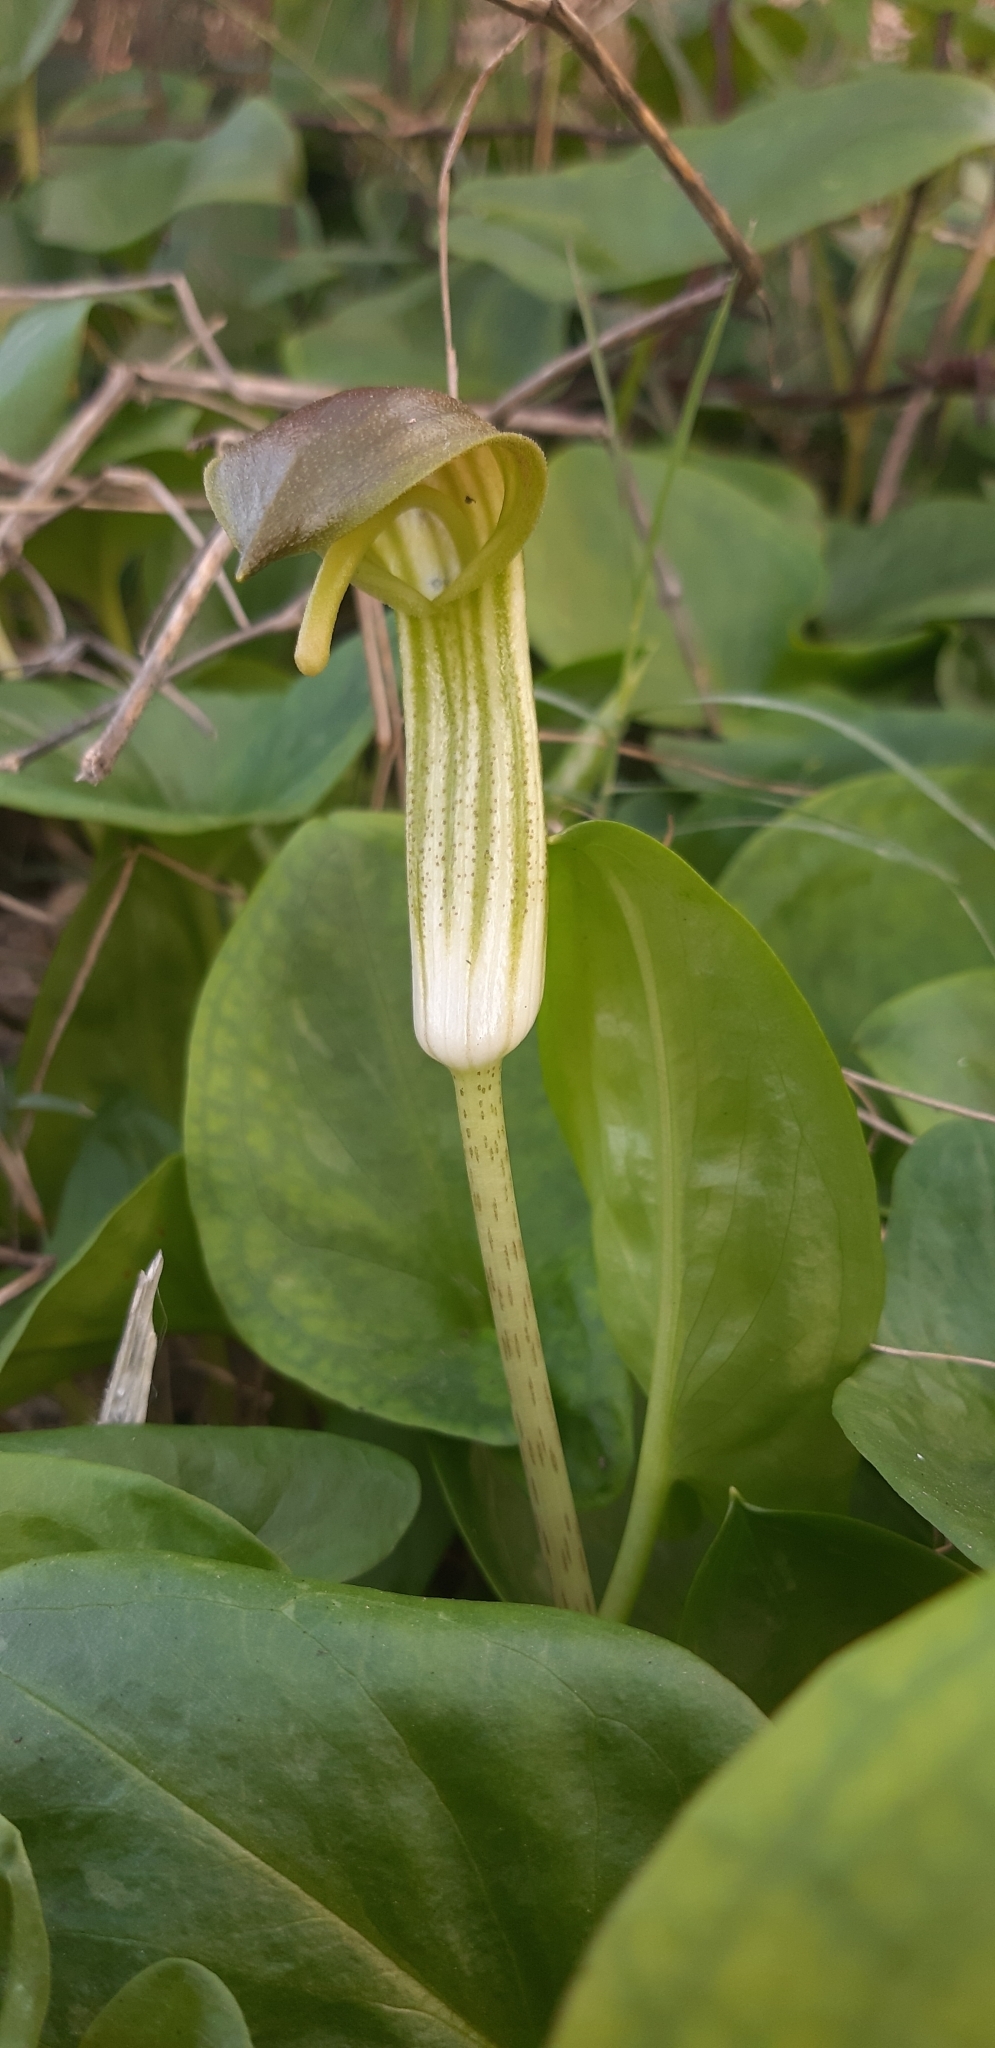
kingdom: Plantae
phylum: Tracheophyta
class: Liliopsida
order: Alismatales
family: Araceae
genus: Arisarum
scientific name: Arisarum vulgare
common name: Common arisarum
